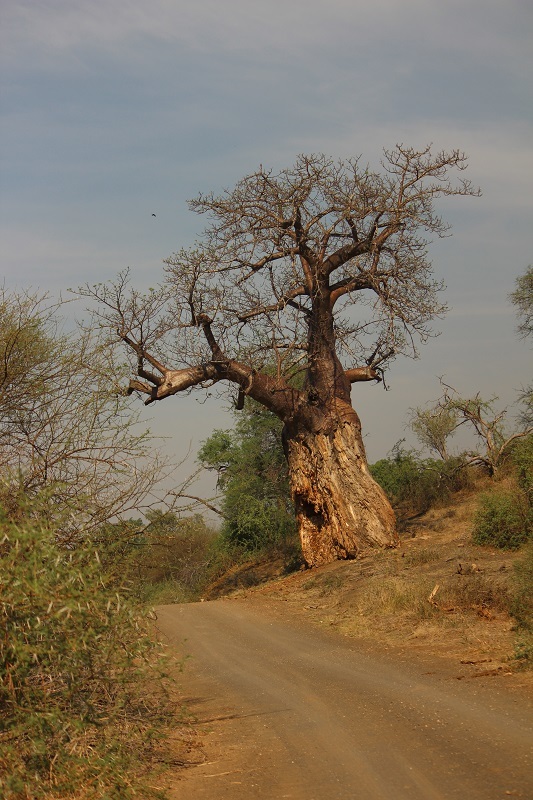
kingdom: Plantae
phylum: Tracheophyta
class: Magnoliopsida
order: Malvales
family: Malvaceae
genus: Adansonia
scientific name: Adansonia digitata
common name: Dead-rat-tree
